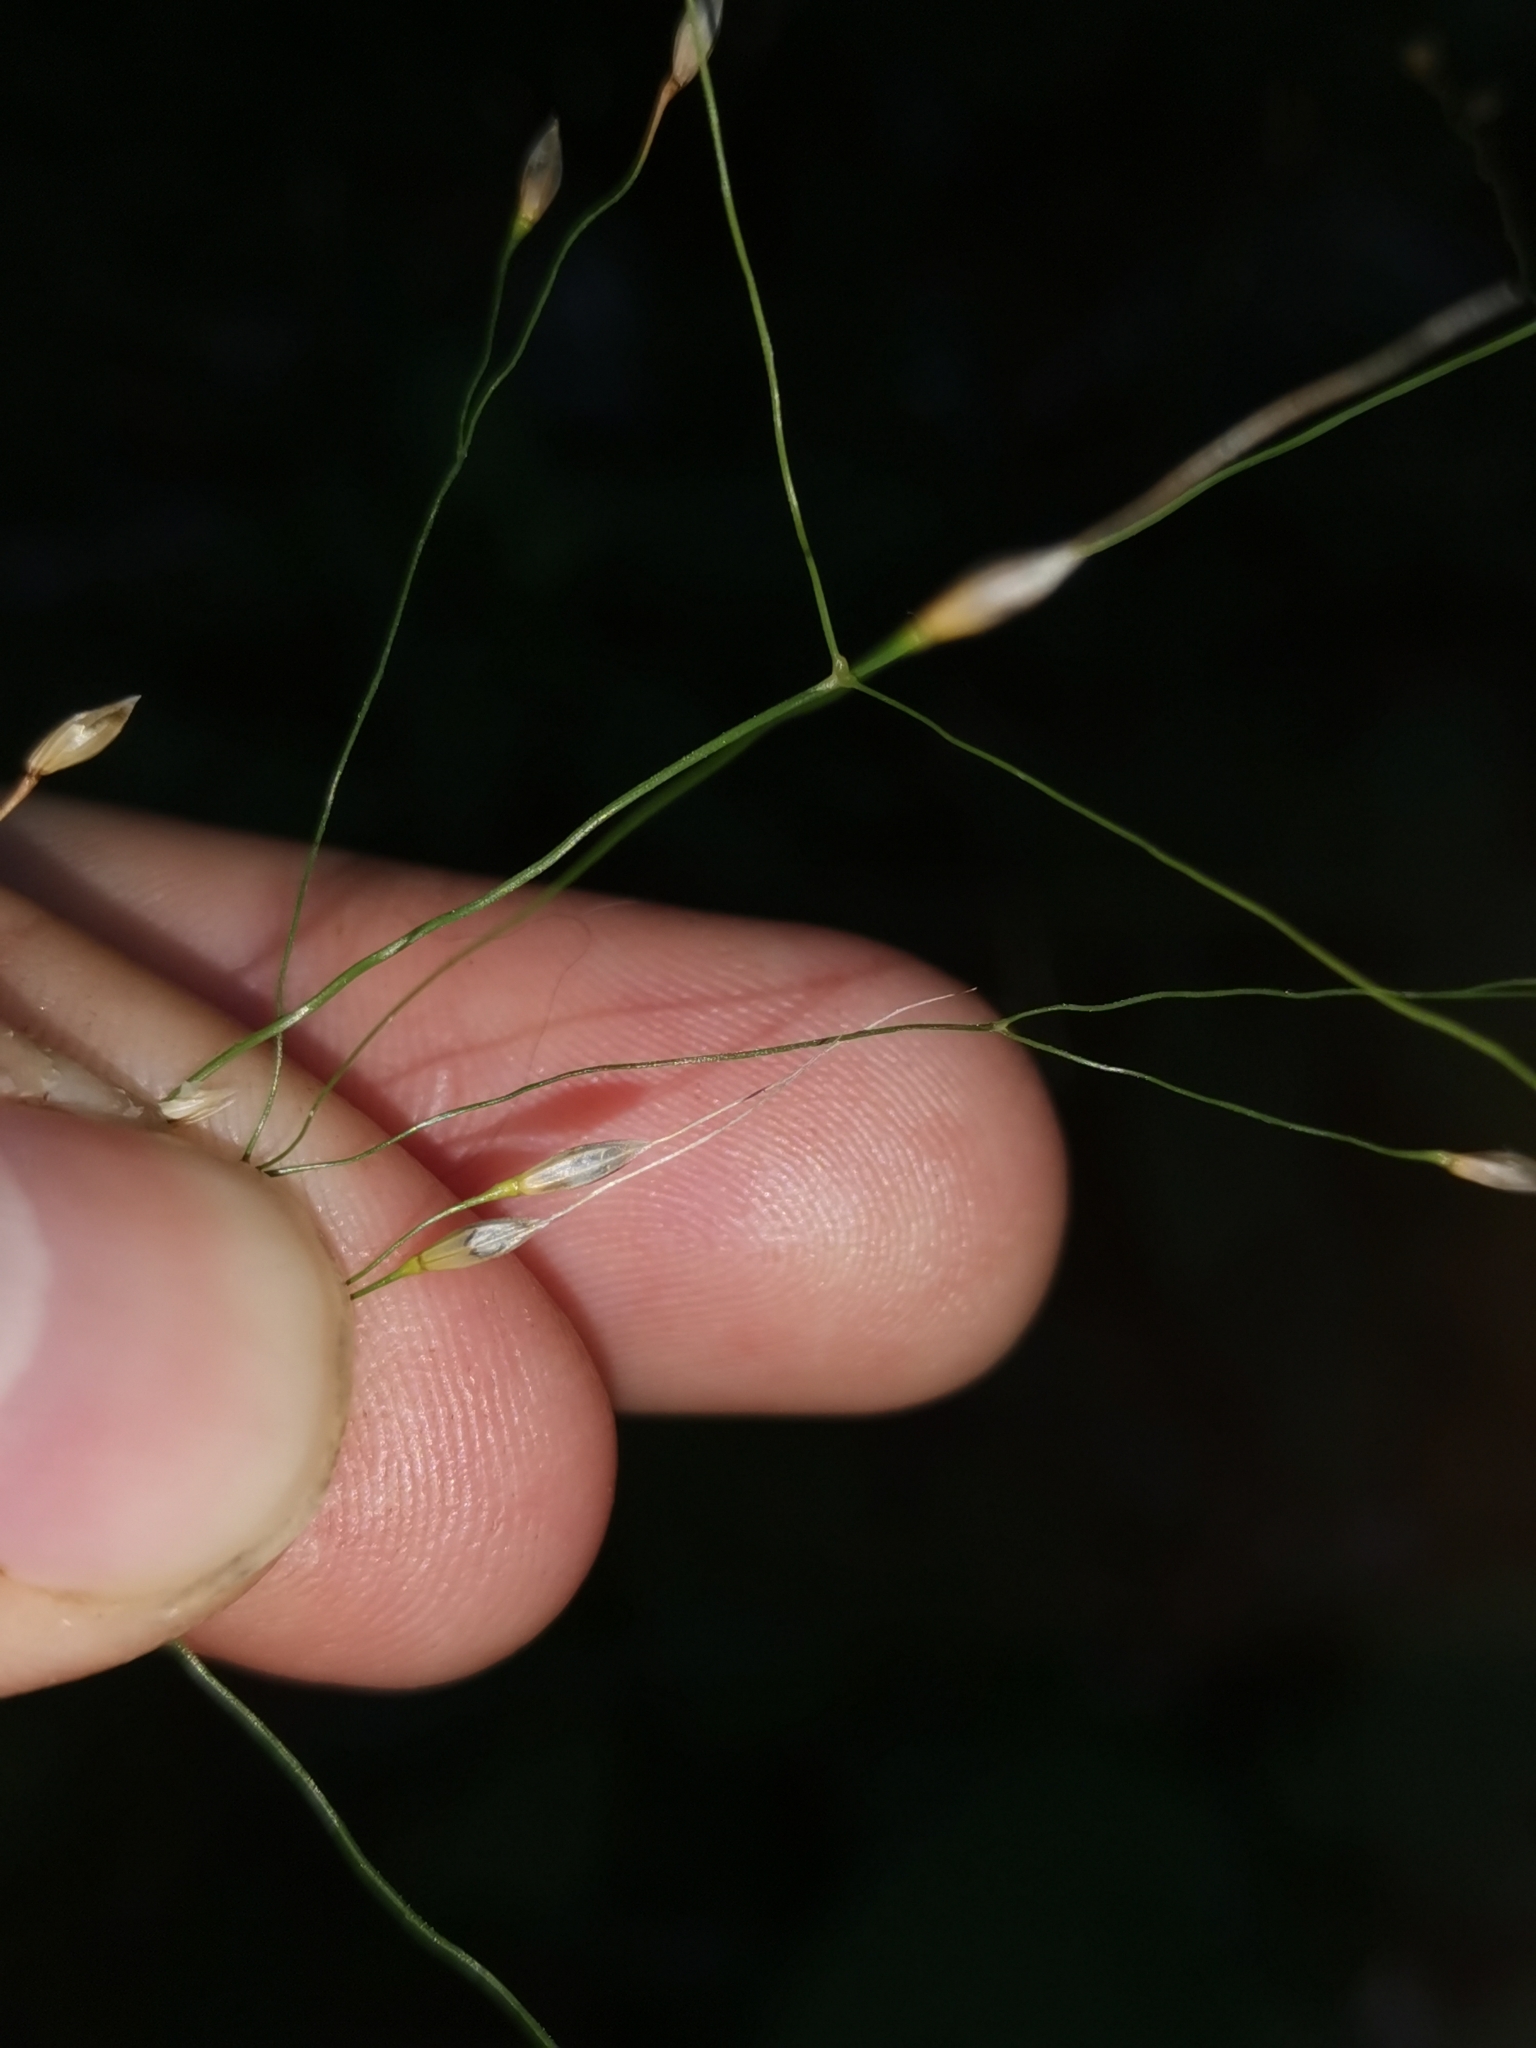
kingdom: Plantae
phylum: Tracheophyta
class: Liliopsida
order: Poales
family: Poaceae
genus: Achnatherum
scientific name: Achnatherum virescens
